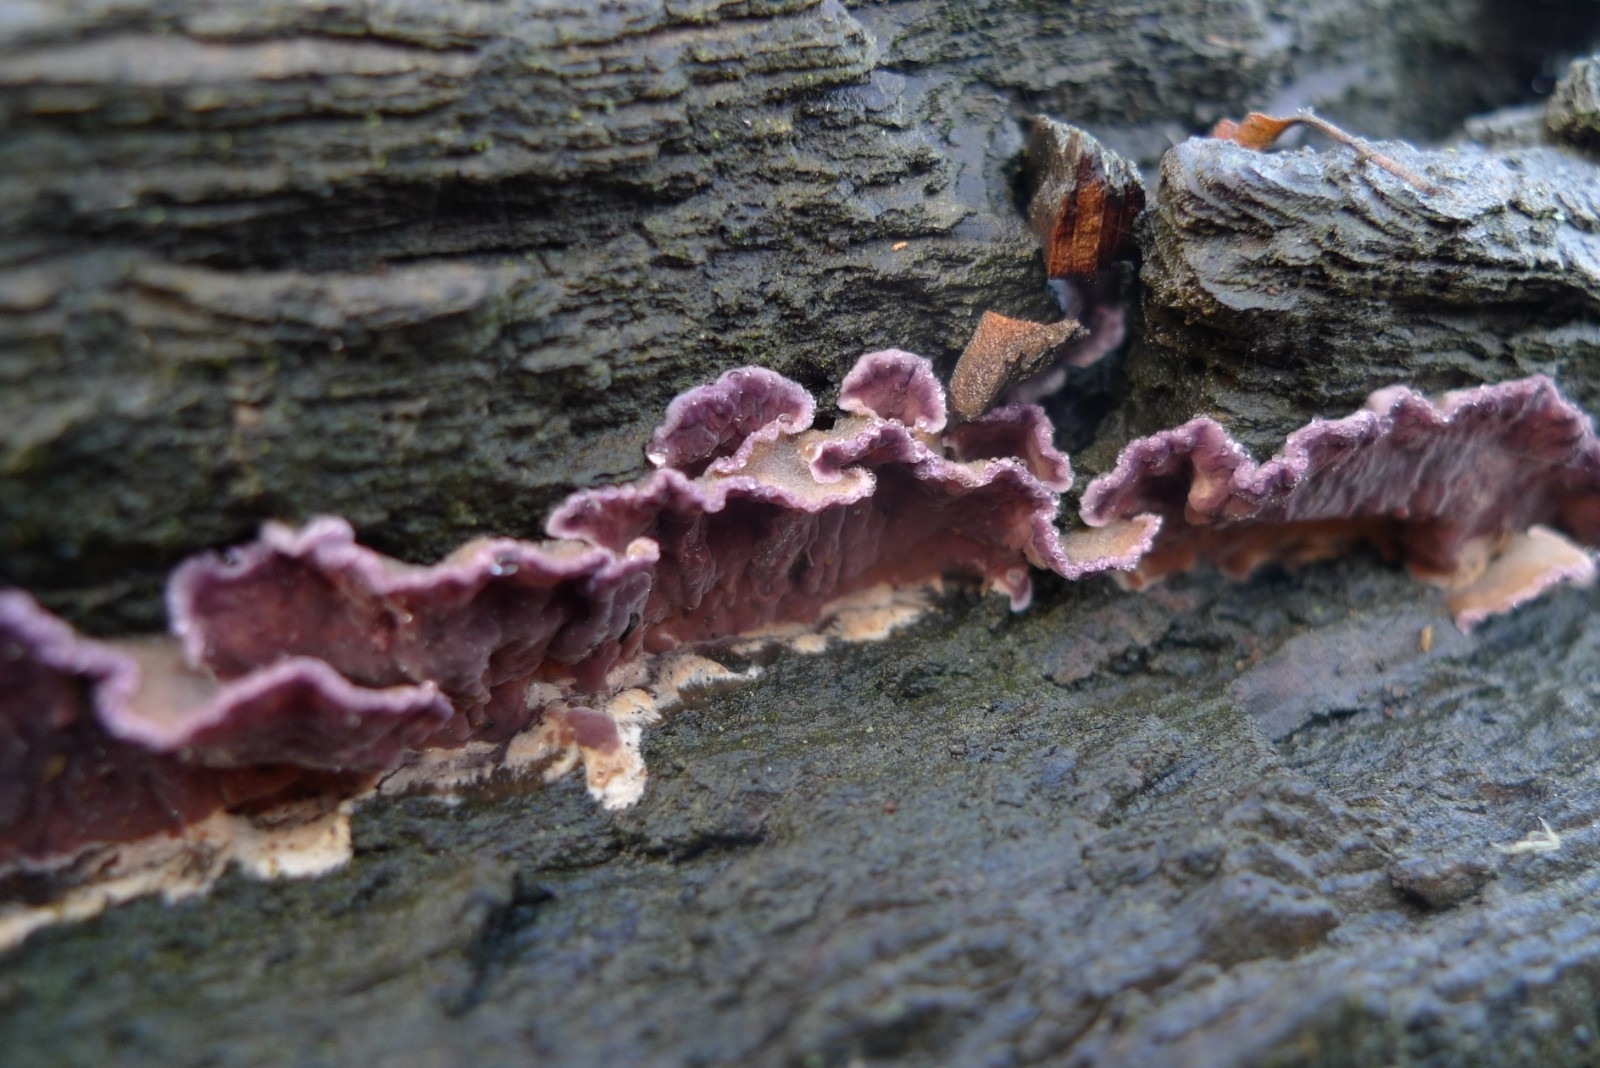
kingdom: Fungi
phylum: Basidiomycota
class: Agaricomycetes
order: Agaricales
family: Cyphellaceae
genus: Chondrostereum
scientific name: Chondrostereum purpureum
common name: Silver leaf disease
